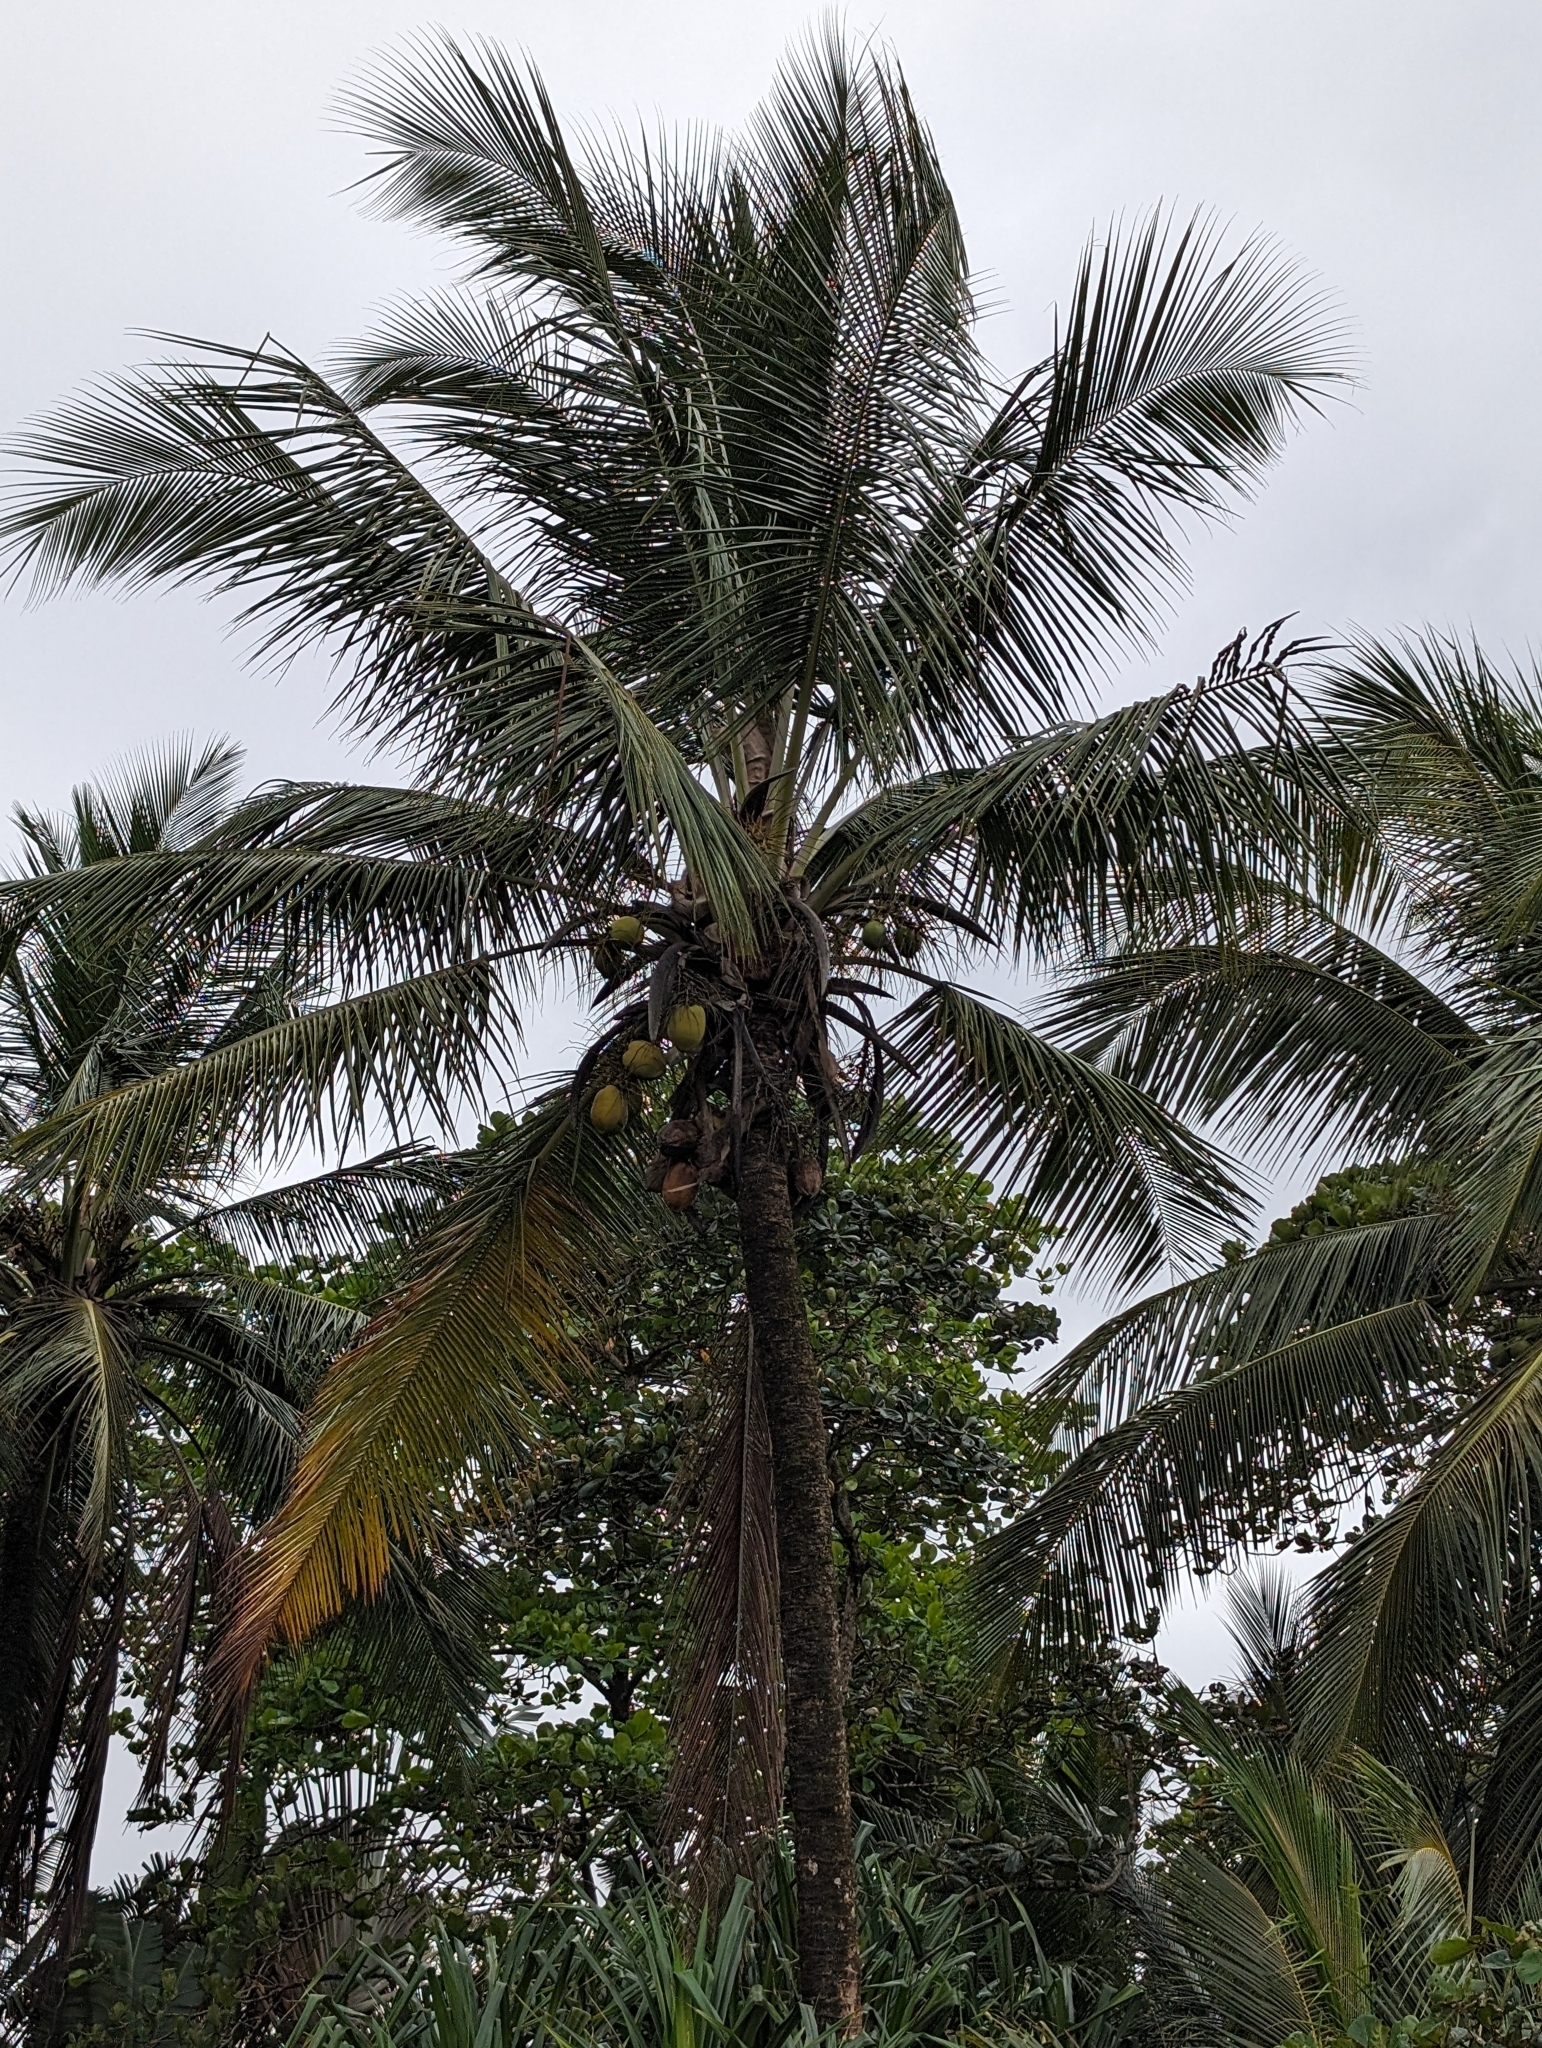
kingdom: Plantae
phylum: Tracheophyta
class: Liliopsida
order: Arecales
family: Arecaceae
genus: Cocos
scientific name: Cocos nucifera
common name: Coconut palm
